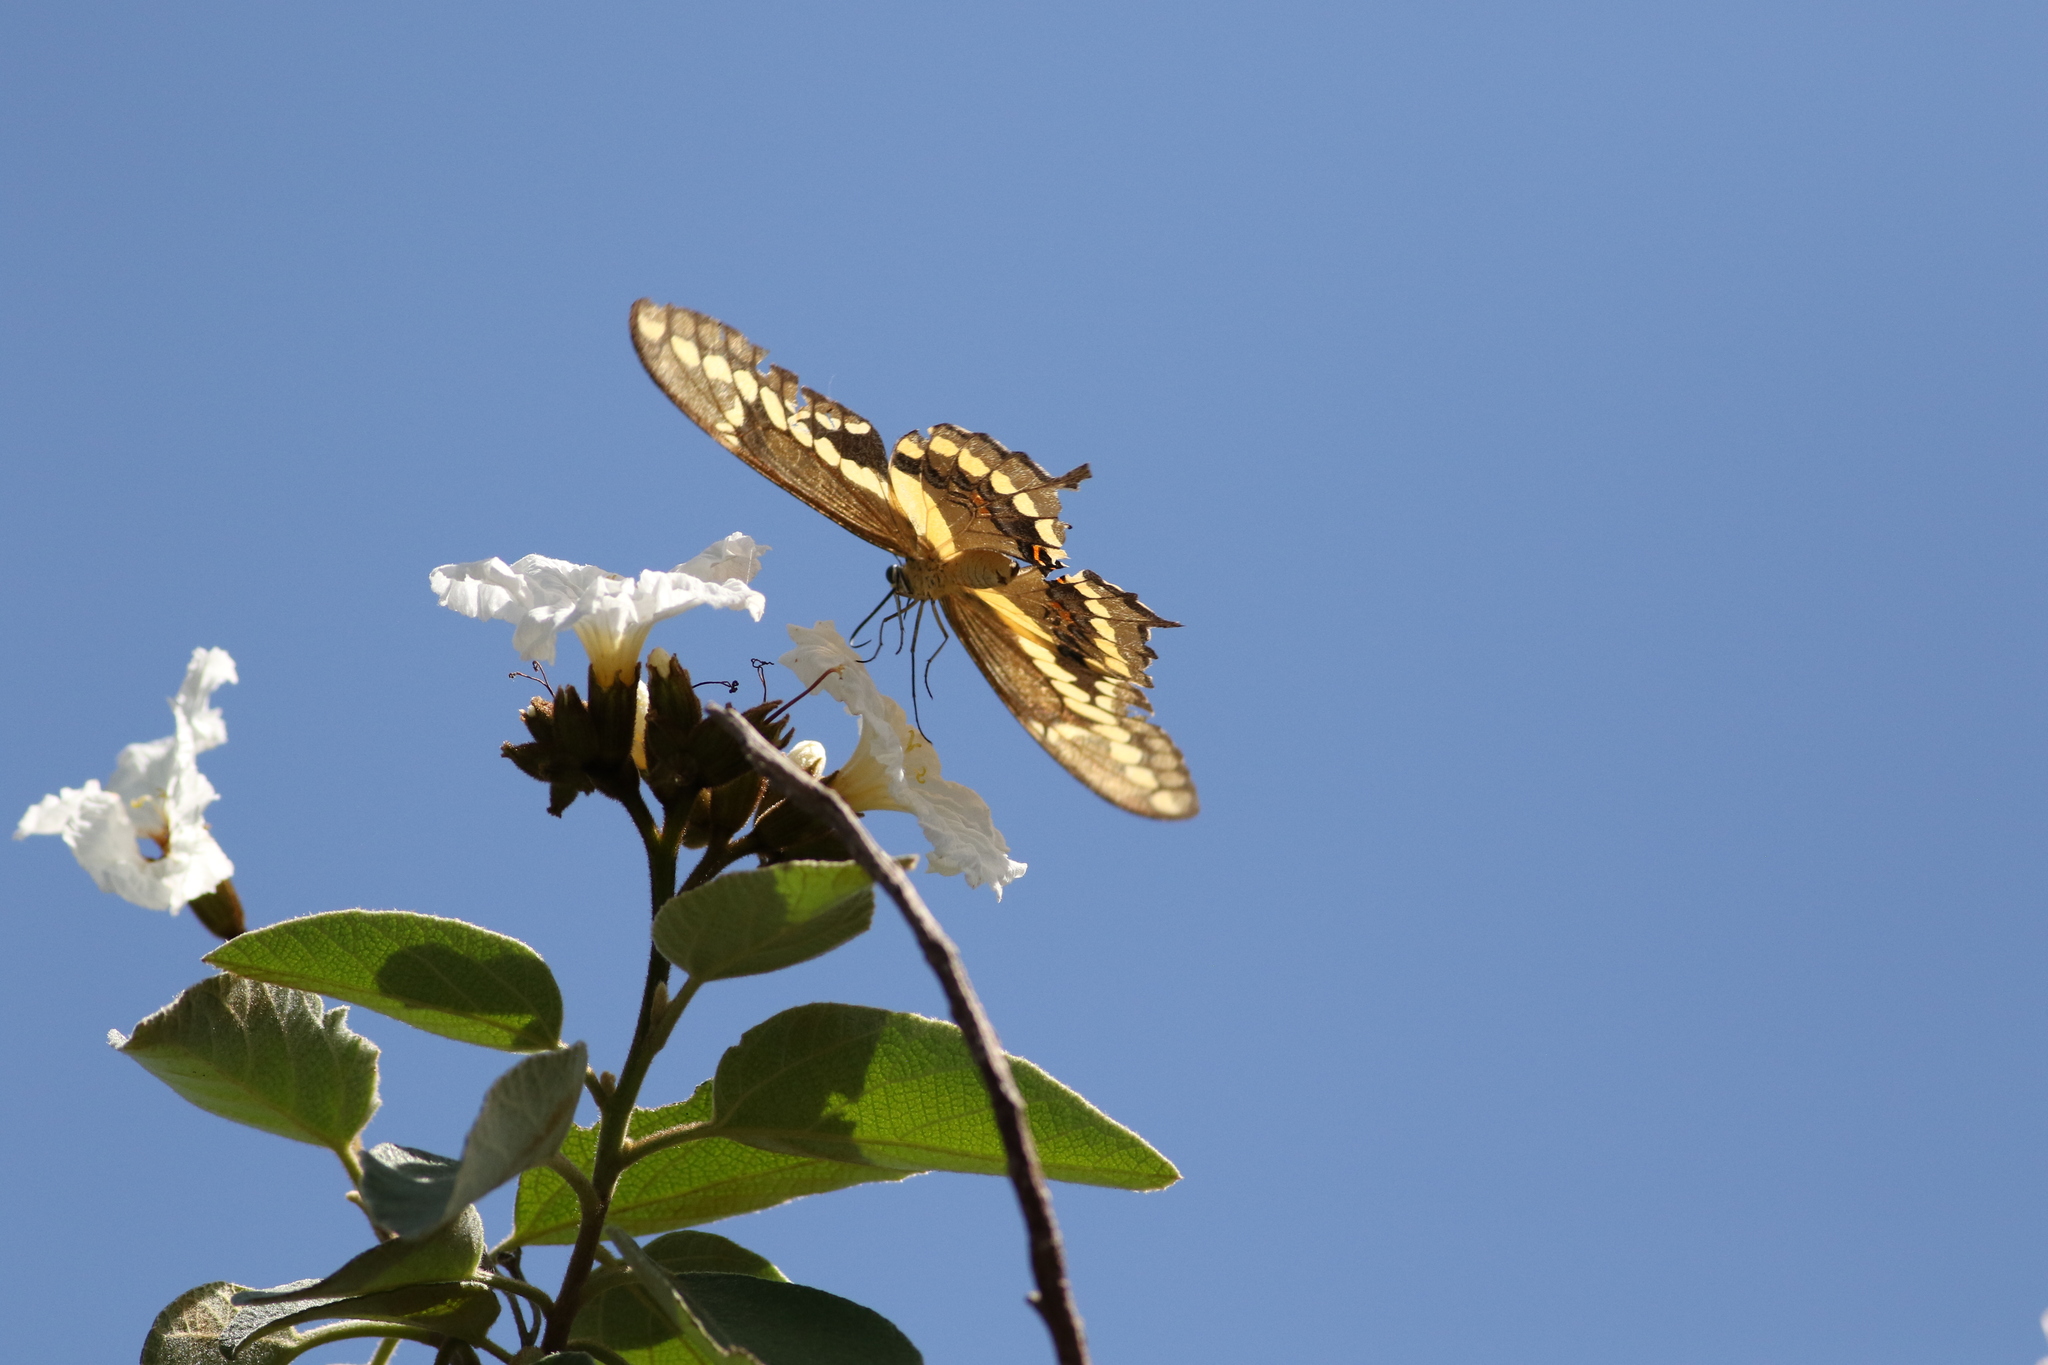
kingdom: Animalia
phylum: Arthropoda
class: Insecta
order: Lepidoptera
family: Papilionidae
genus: Papilio
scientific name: Papilio rumiko
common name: Western giant swallowtail
